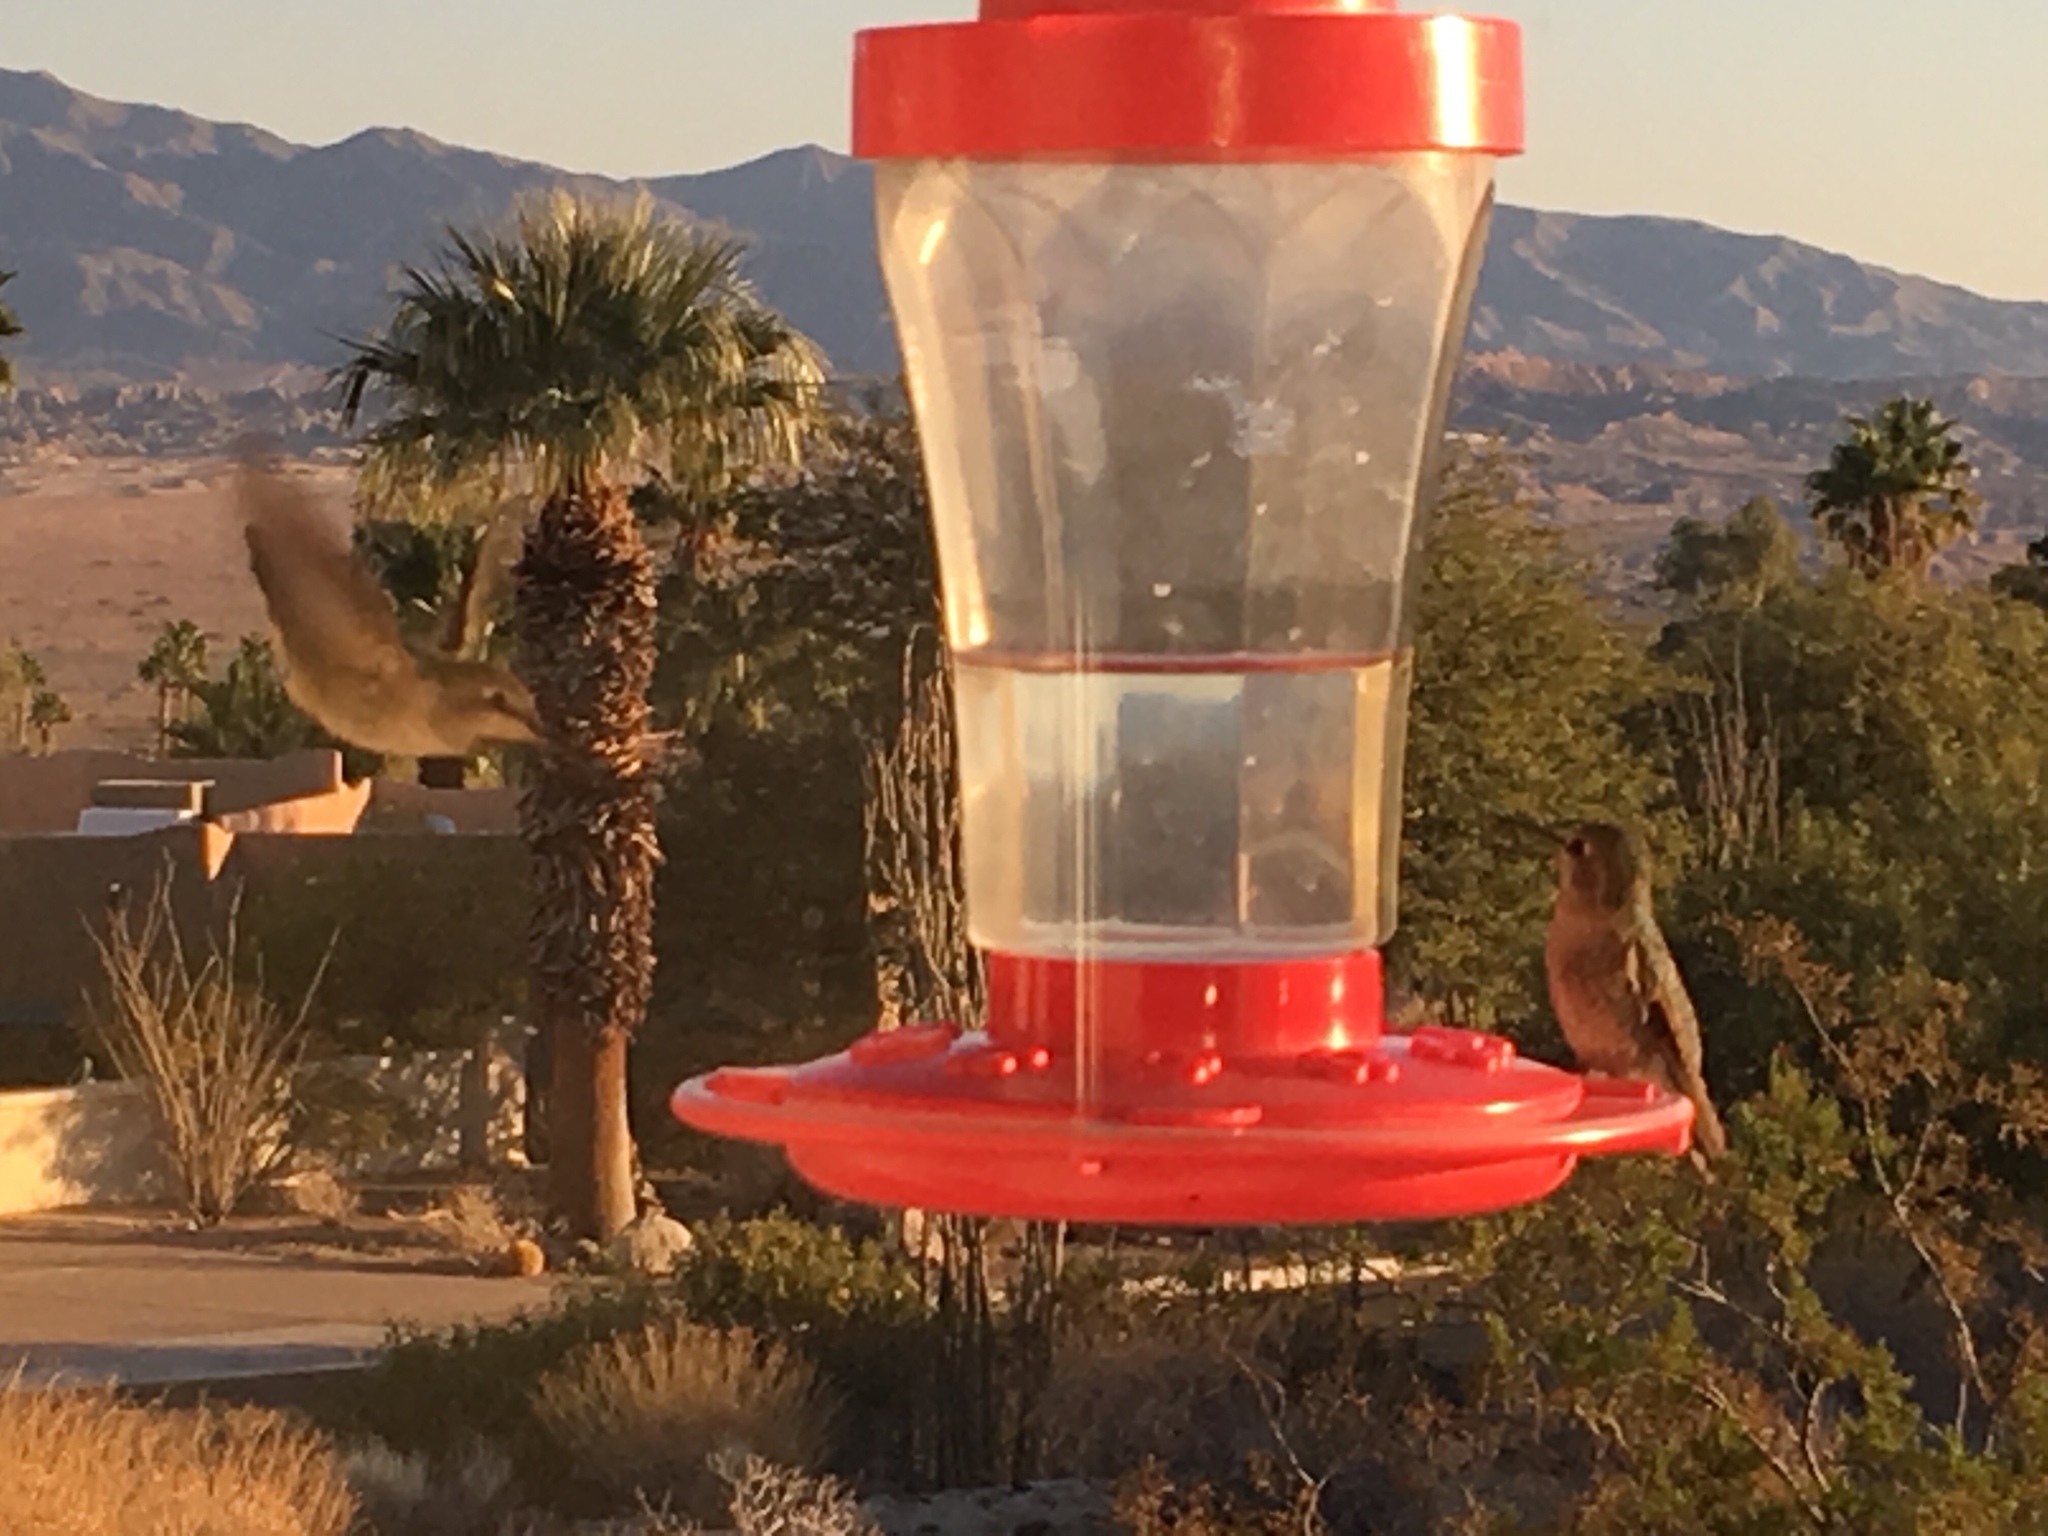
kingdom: Animalia
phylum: Chordata
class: Aves
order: Apodiformes
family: Trochilidae
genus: Calypte
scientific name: Calypte anna
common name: Anna's hummingbird
